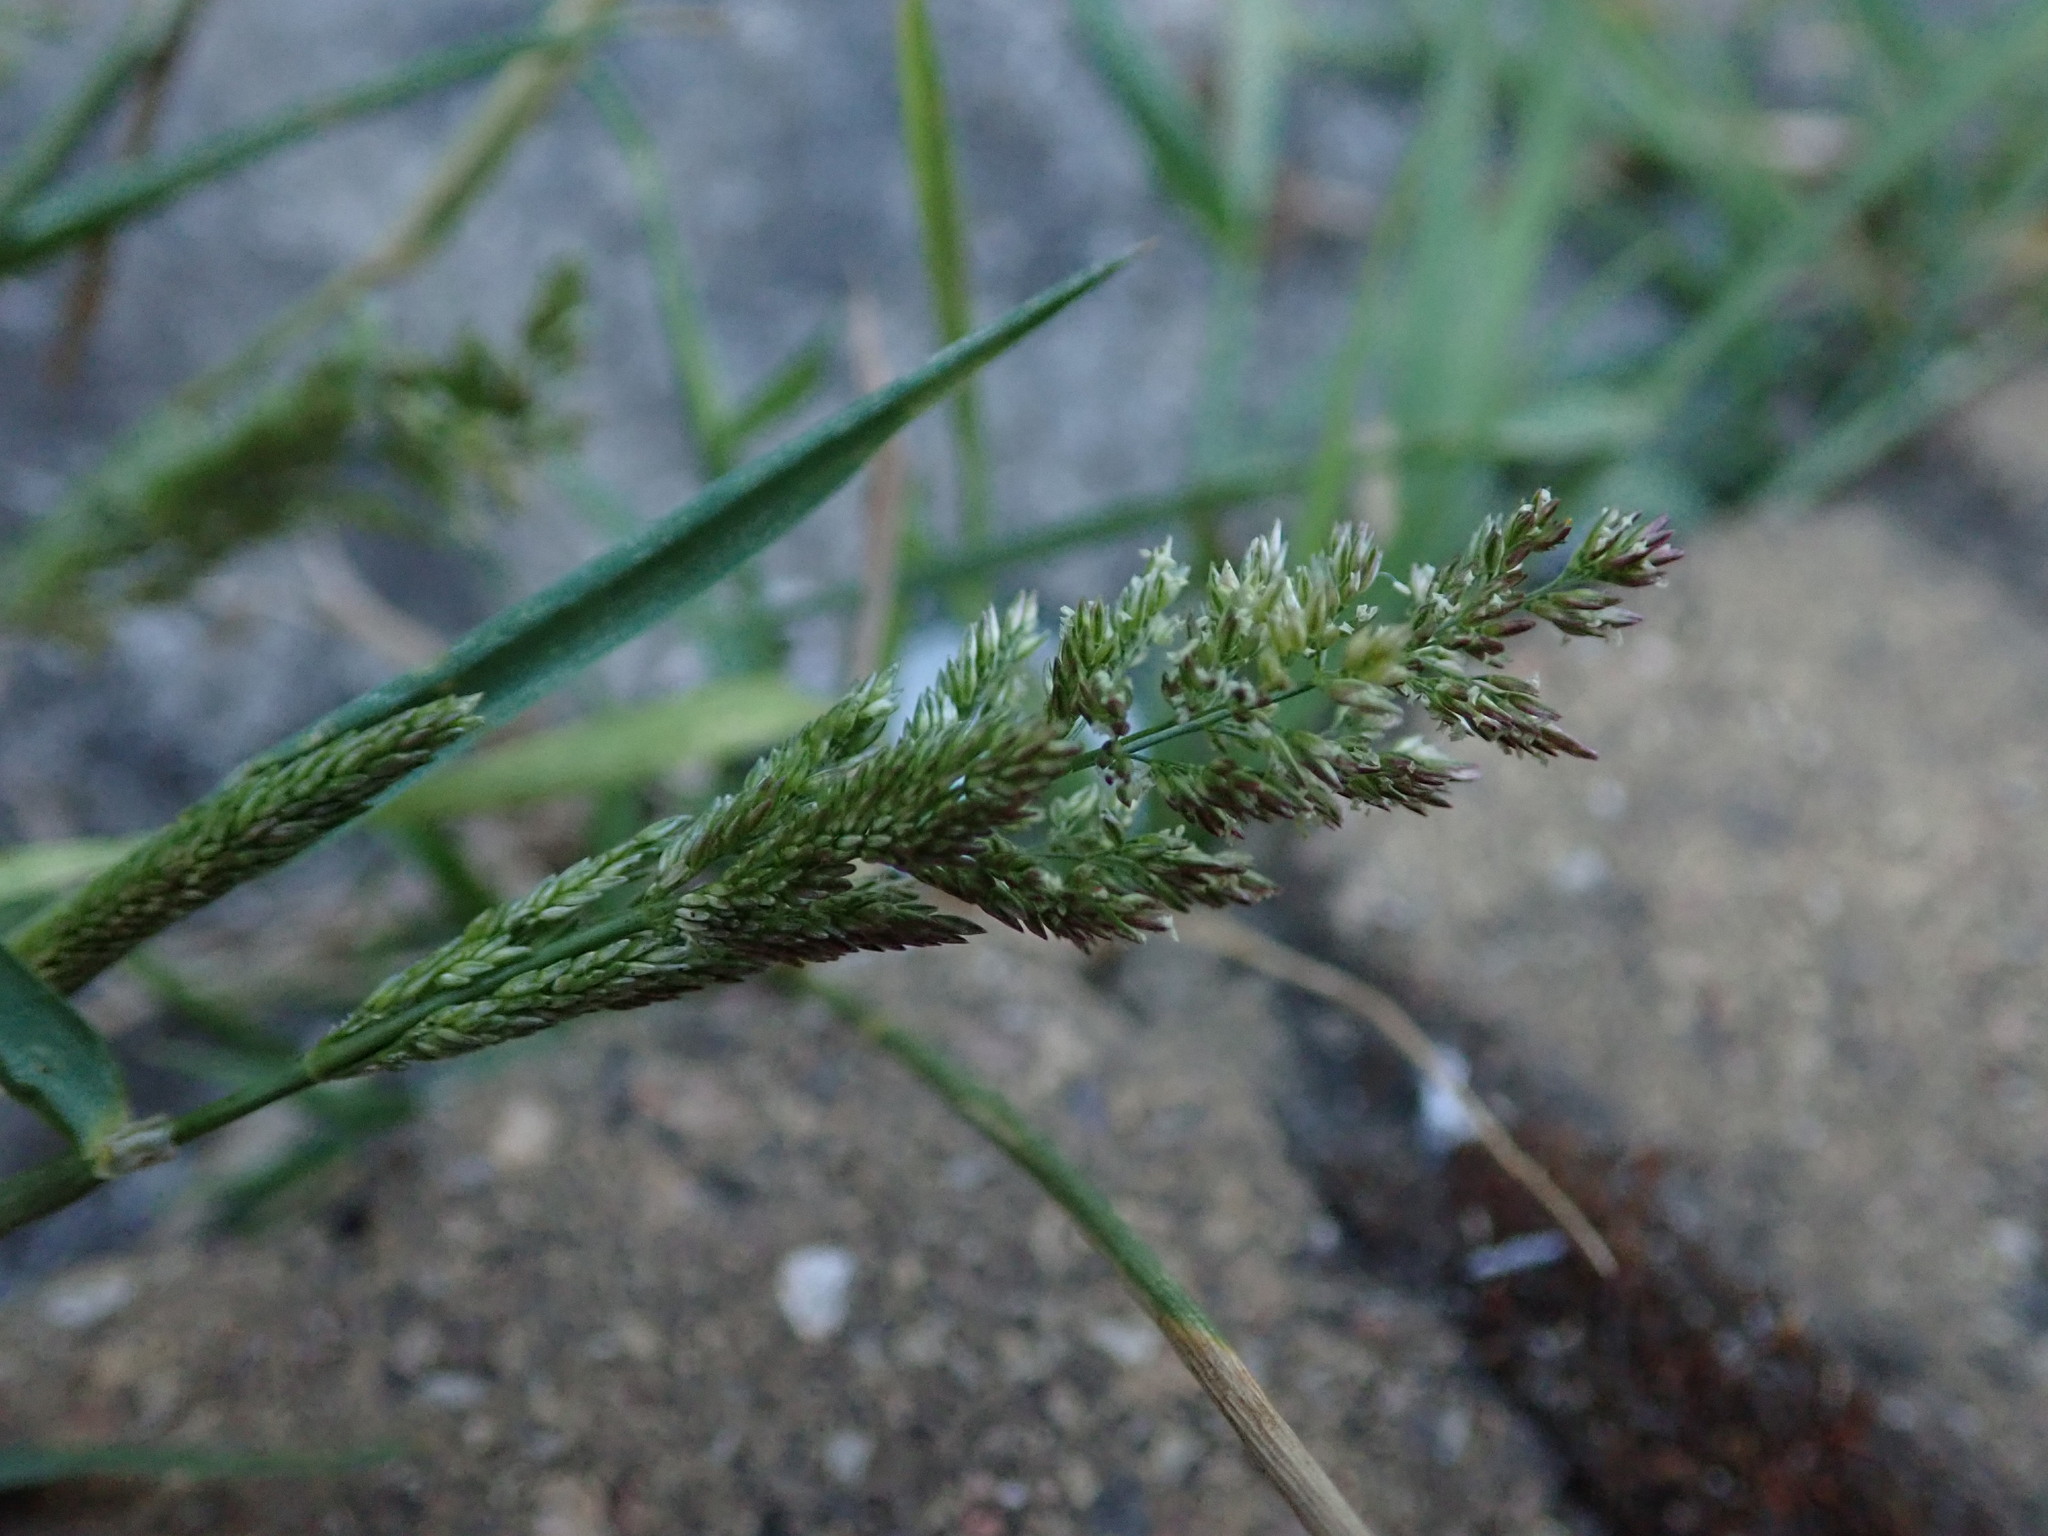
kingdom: Plantae
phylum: Tracheophyta
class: Liliopsida
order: Poales
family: Poaceae
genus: Polypogon
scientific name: Polypogon viridis
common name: Water bent
